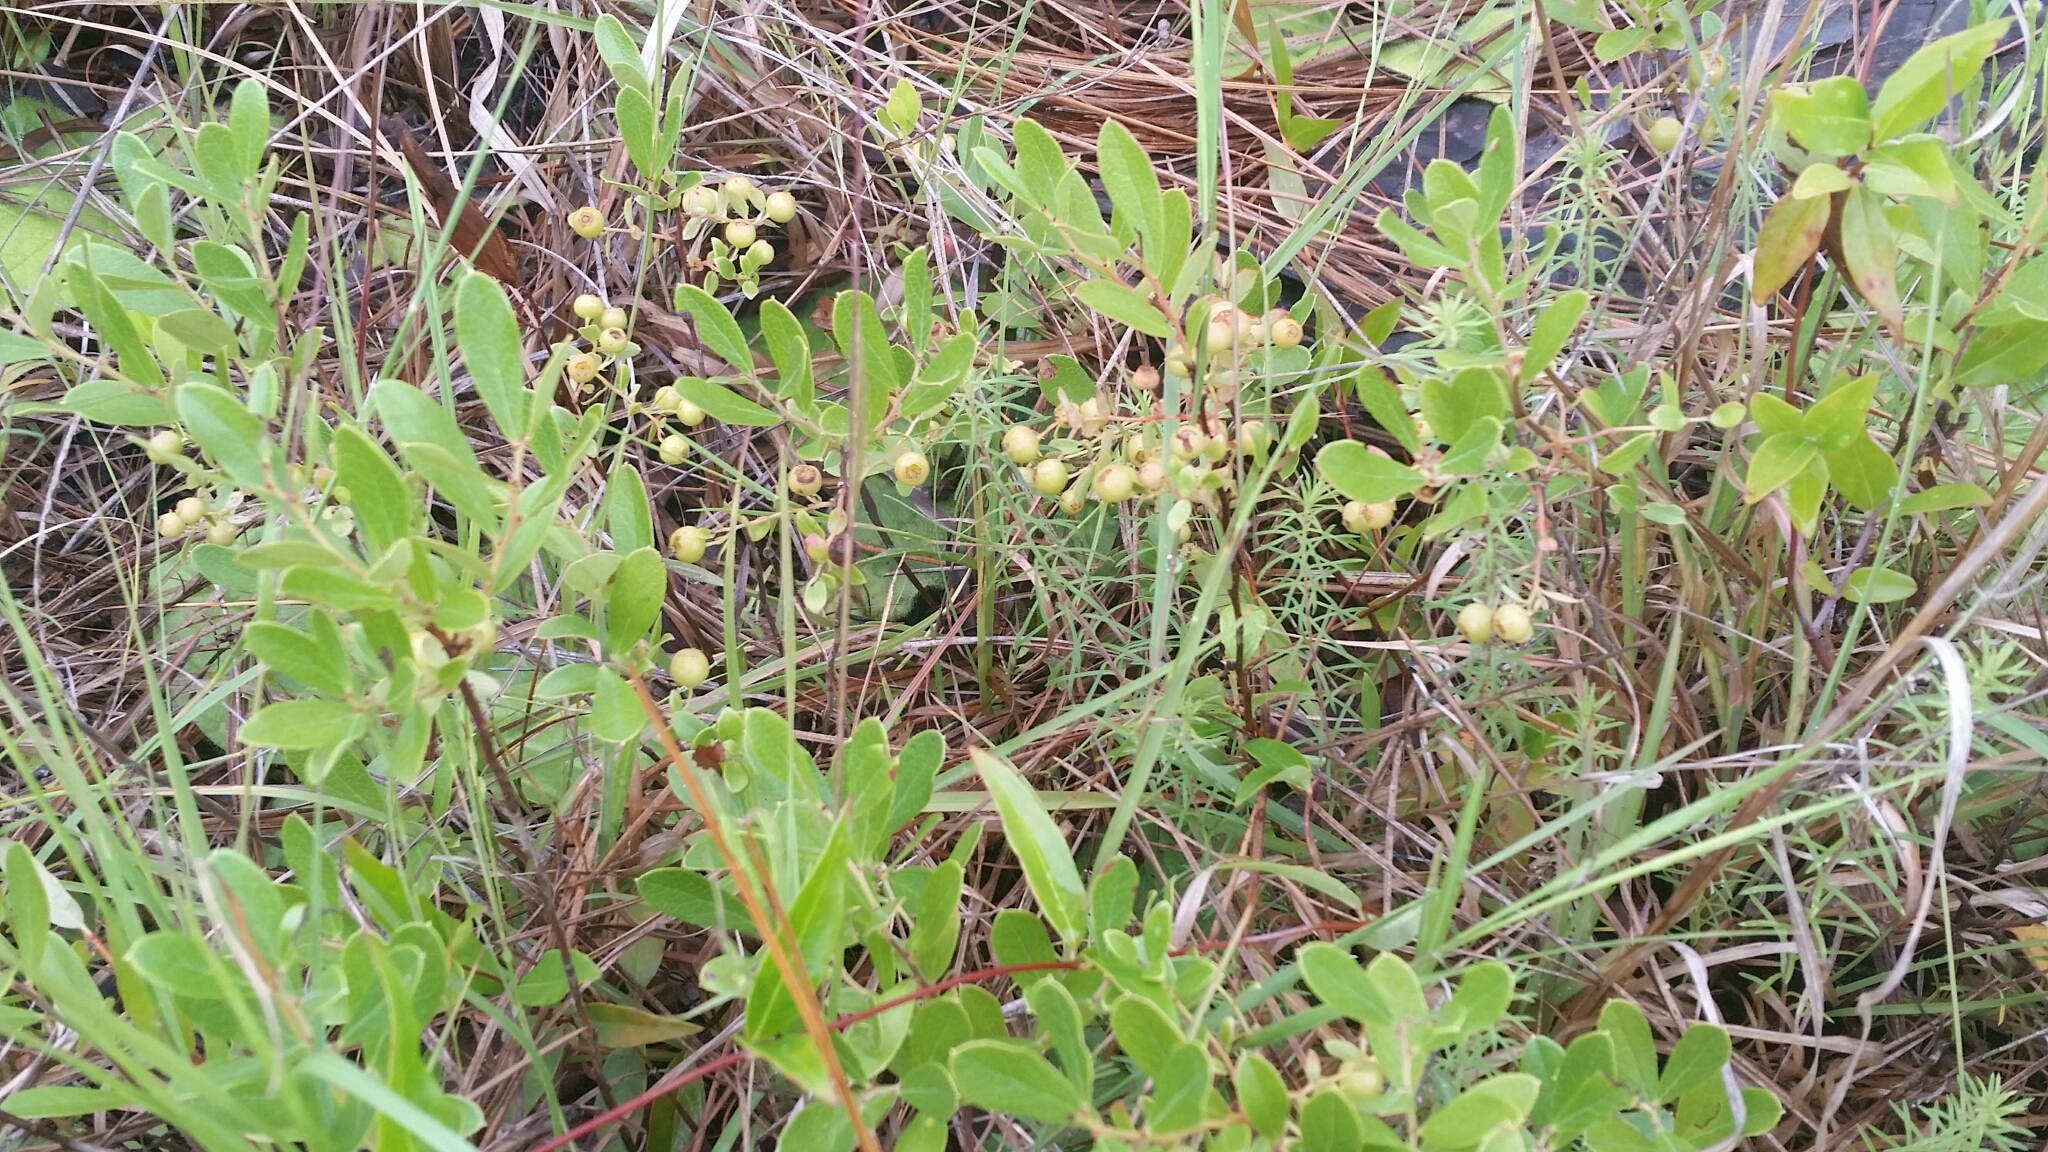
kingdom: Plantae
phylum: Tracheophyta
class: Magnoliopsida
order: Ericales
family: Ericaceae
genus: Gaylussacia
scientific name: Gaylussacia dumosa
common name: Dwarf huckleberry
